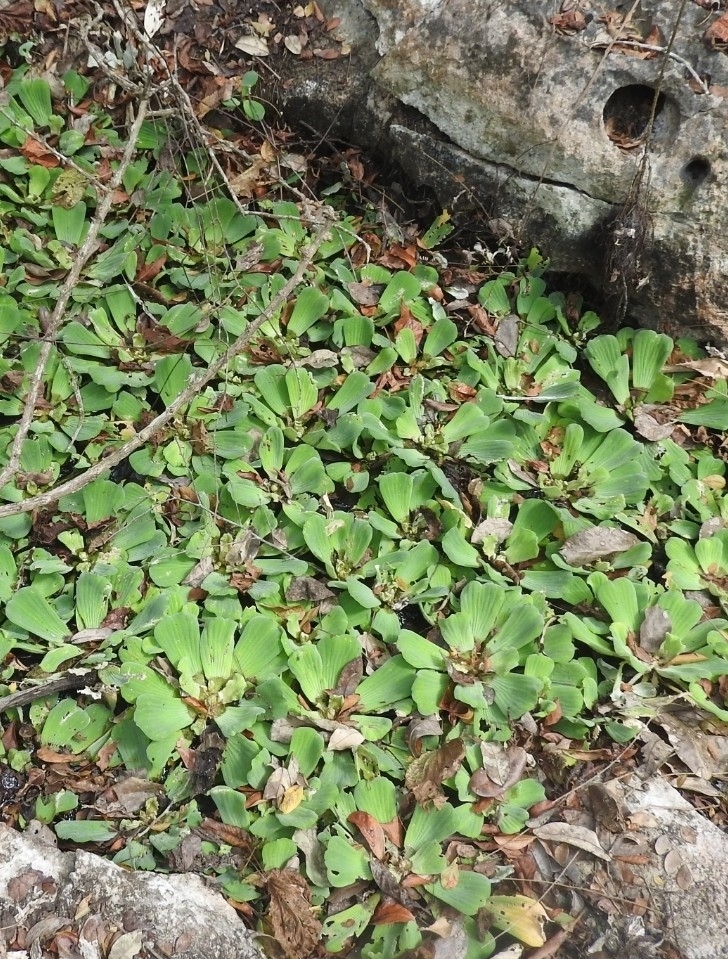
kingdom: Plantae
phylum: Tracheophyta
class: Liliopsida
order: Alismatales
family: Araceae
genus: Pistia
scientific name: Pistia stratiotes
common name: Water lettuce
